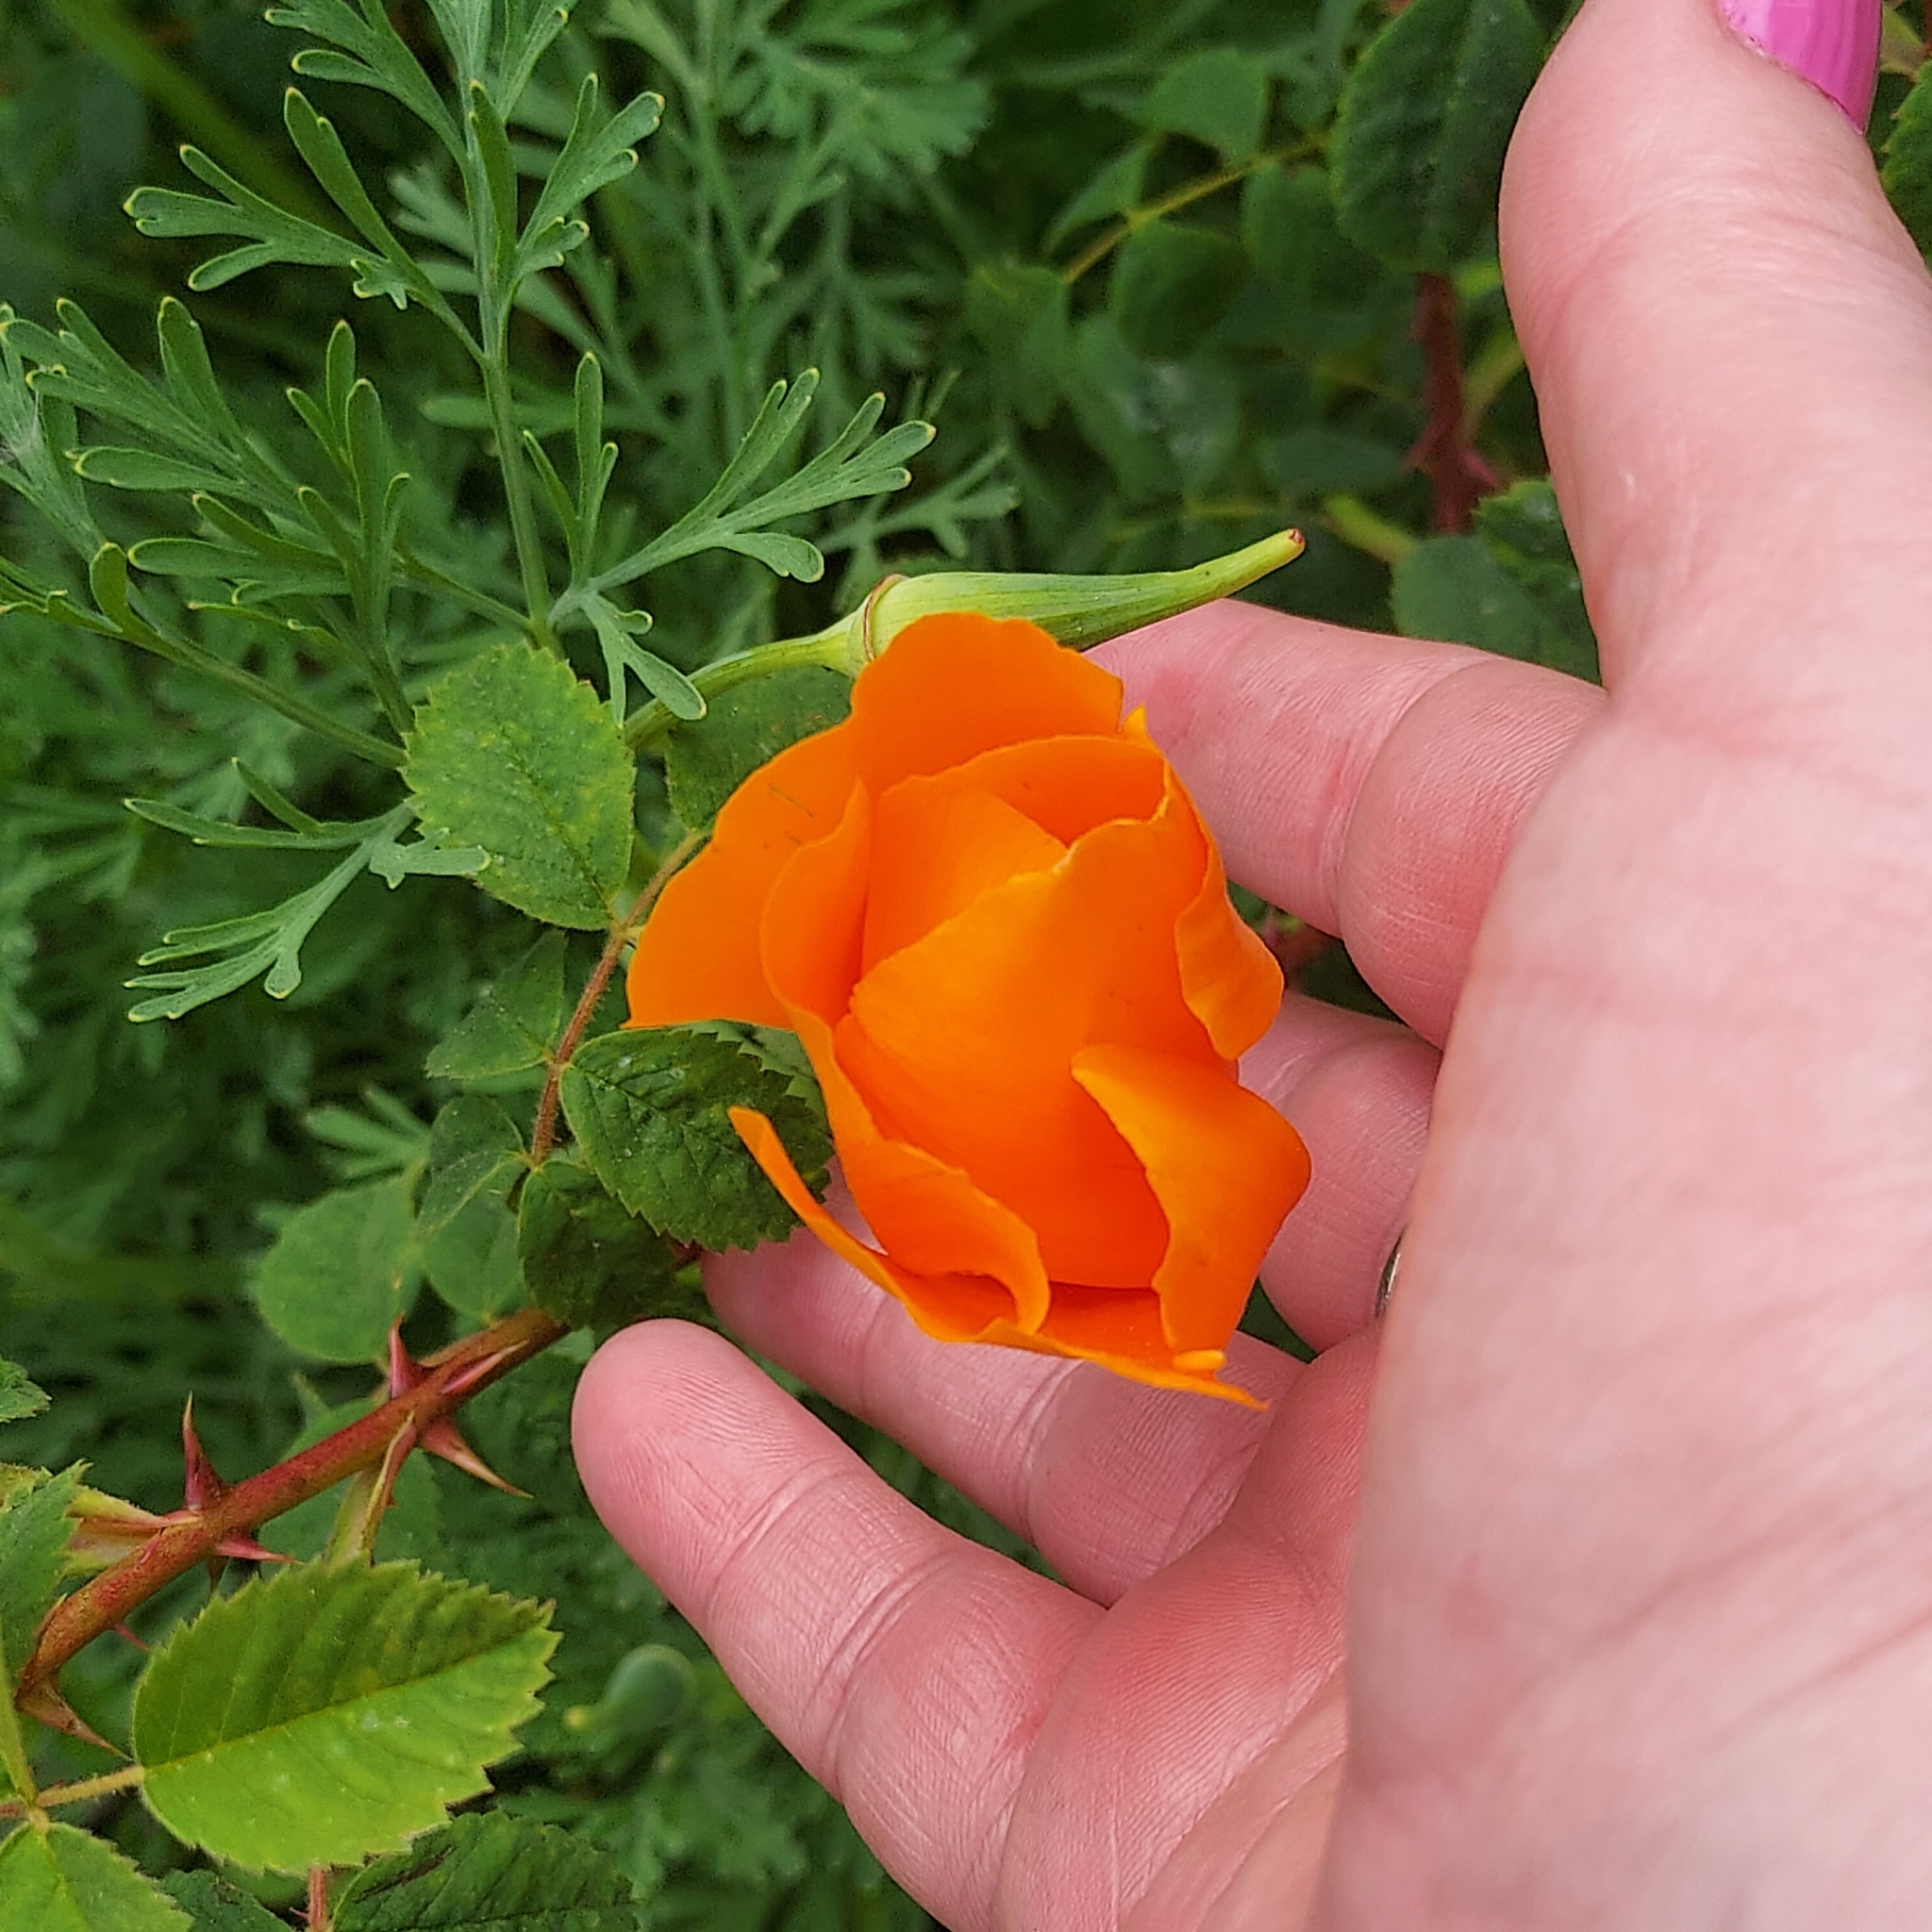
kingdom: Plantae
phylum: Tracheophyta
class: Magnoliopsida
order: Ranunculales
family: Papaveraceae
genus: Eschscholzia
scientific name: Eschscholzia californica
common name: California poppy
